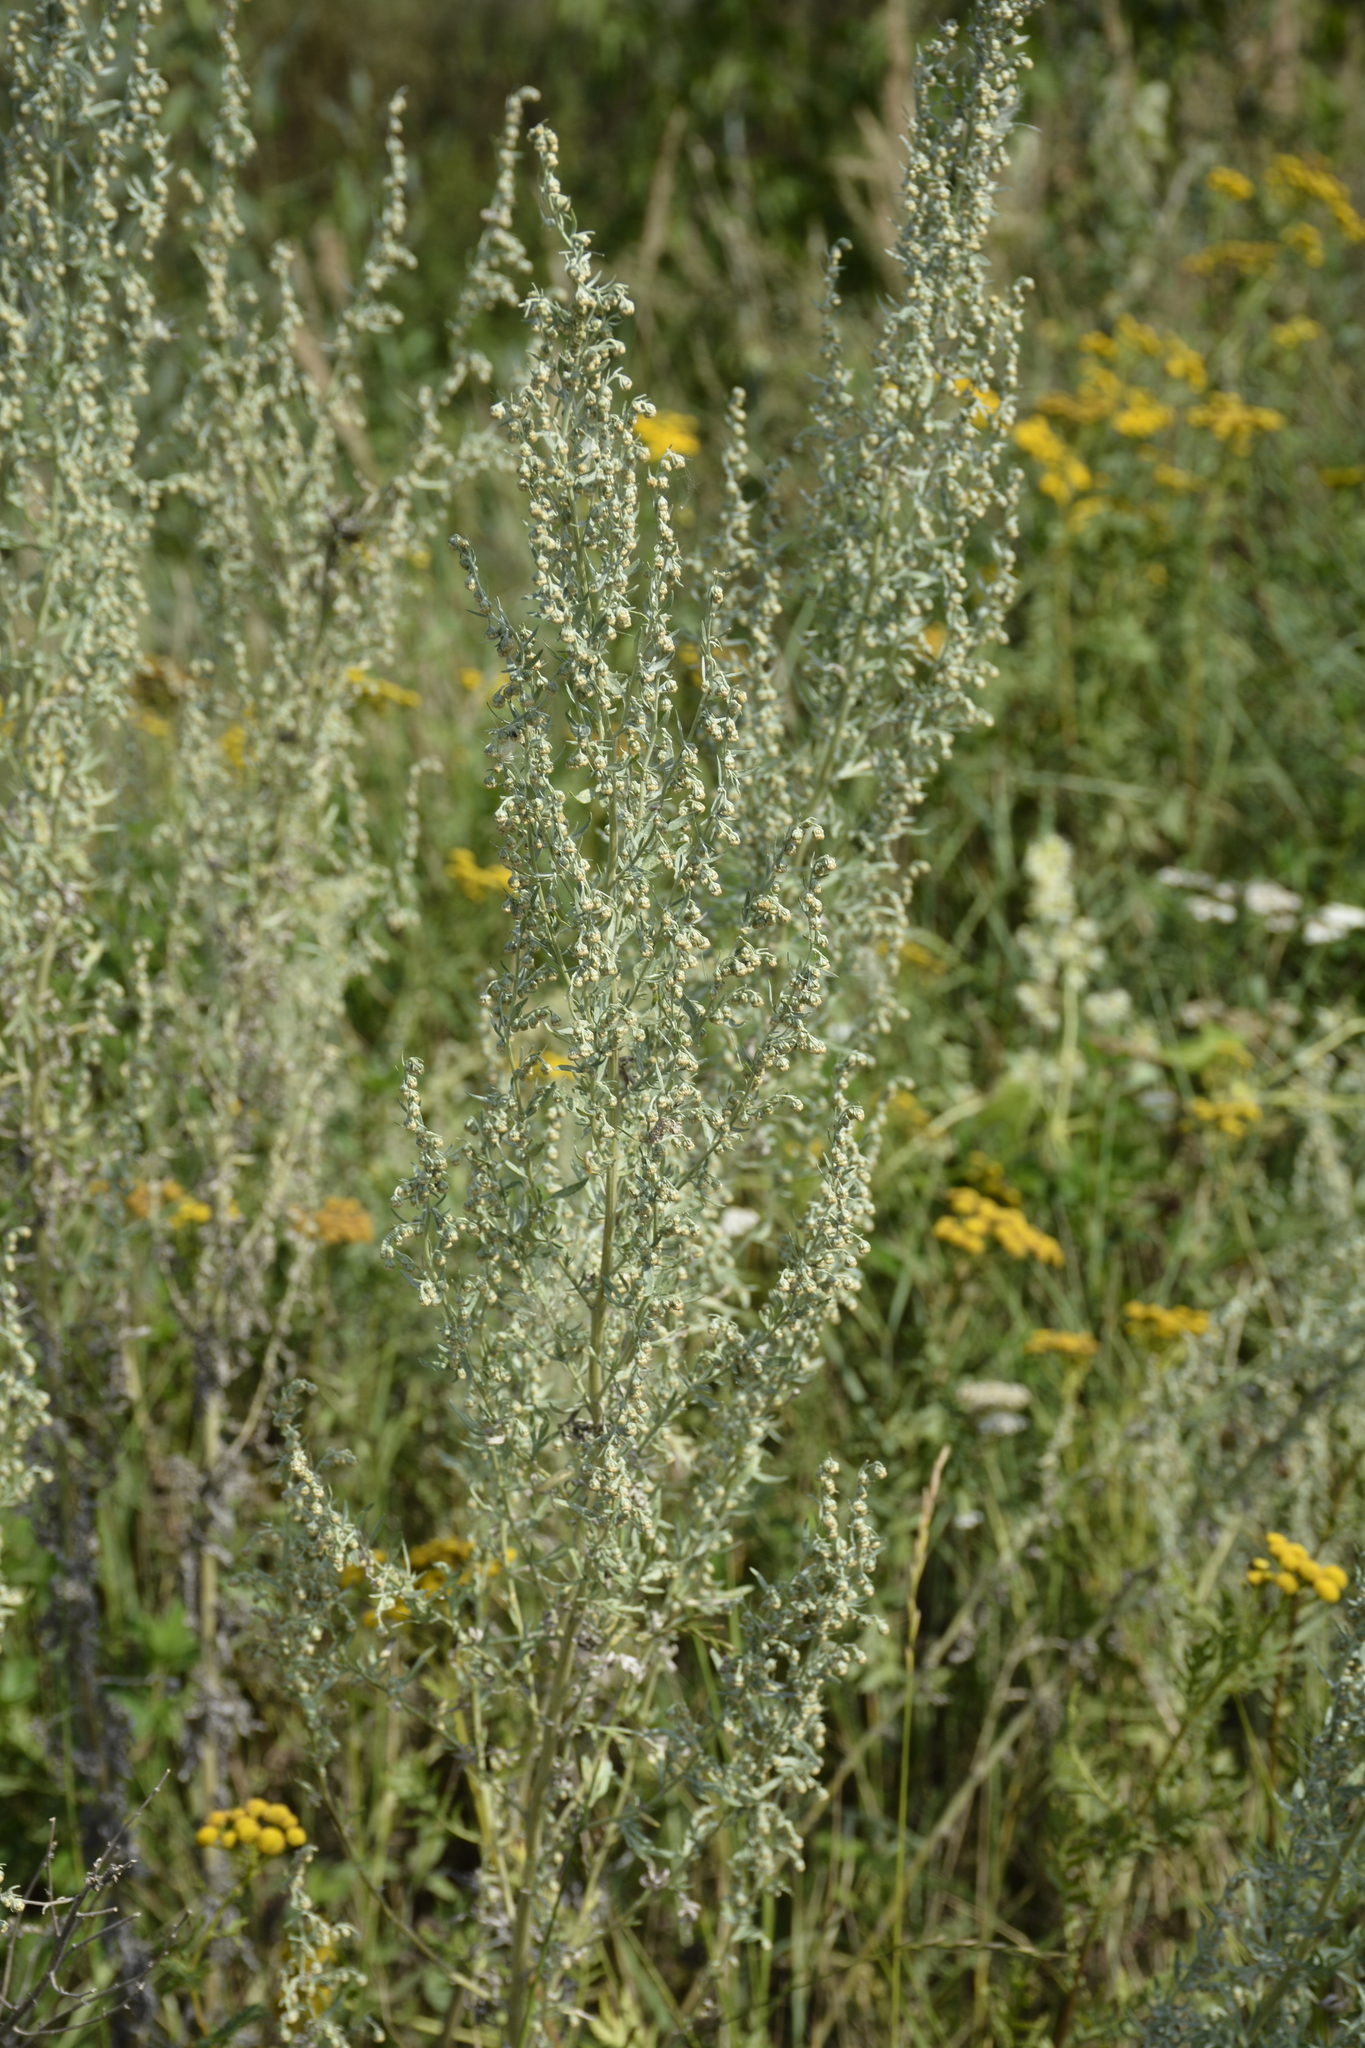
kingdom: Plantae
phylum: Tracheophyta
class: Magnoliopsida
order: Asterales
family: Asteraceae
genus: Artemisia
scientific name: Artemisia absinthium
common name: Wormwood
